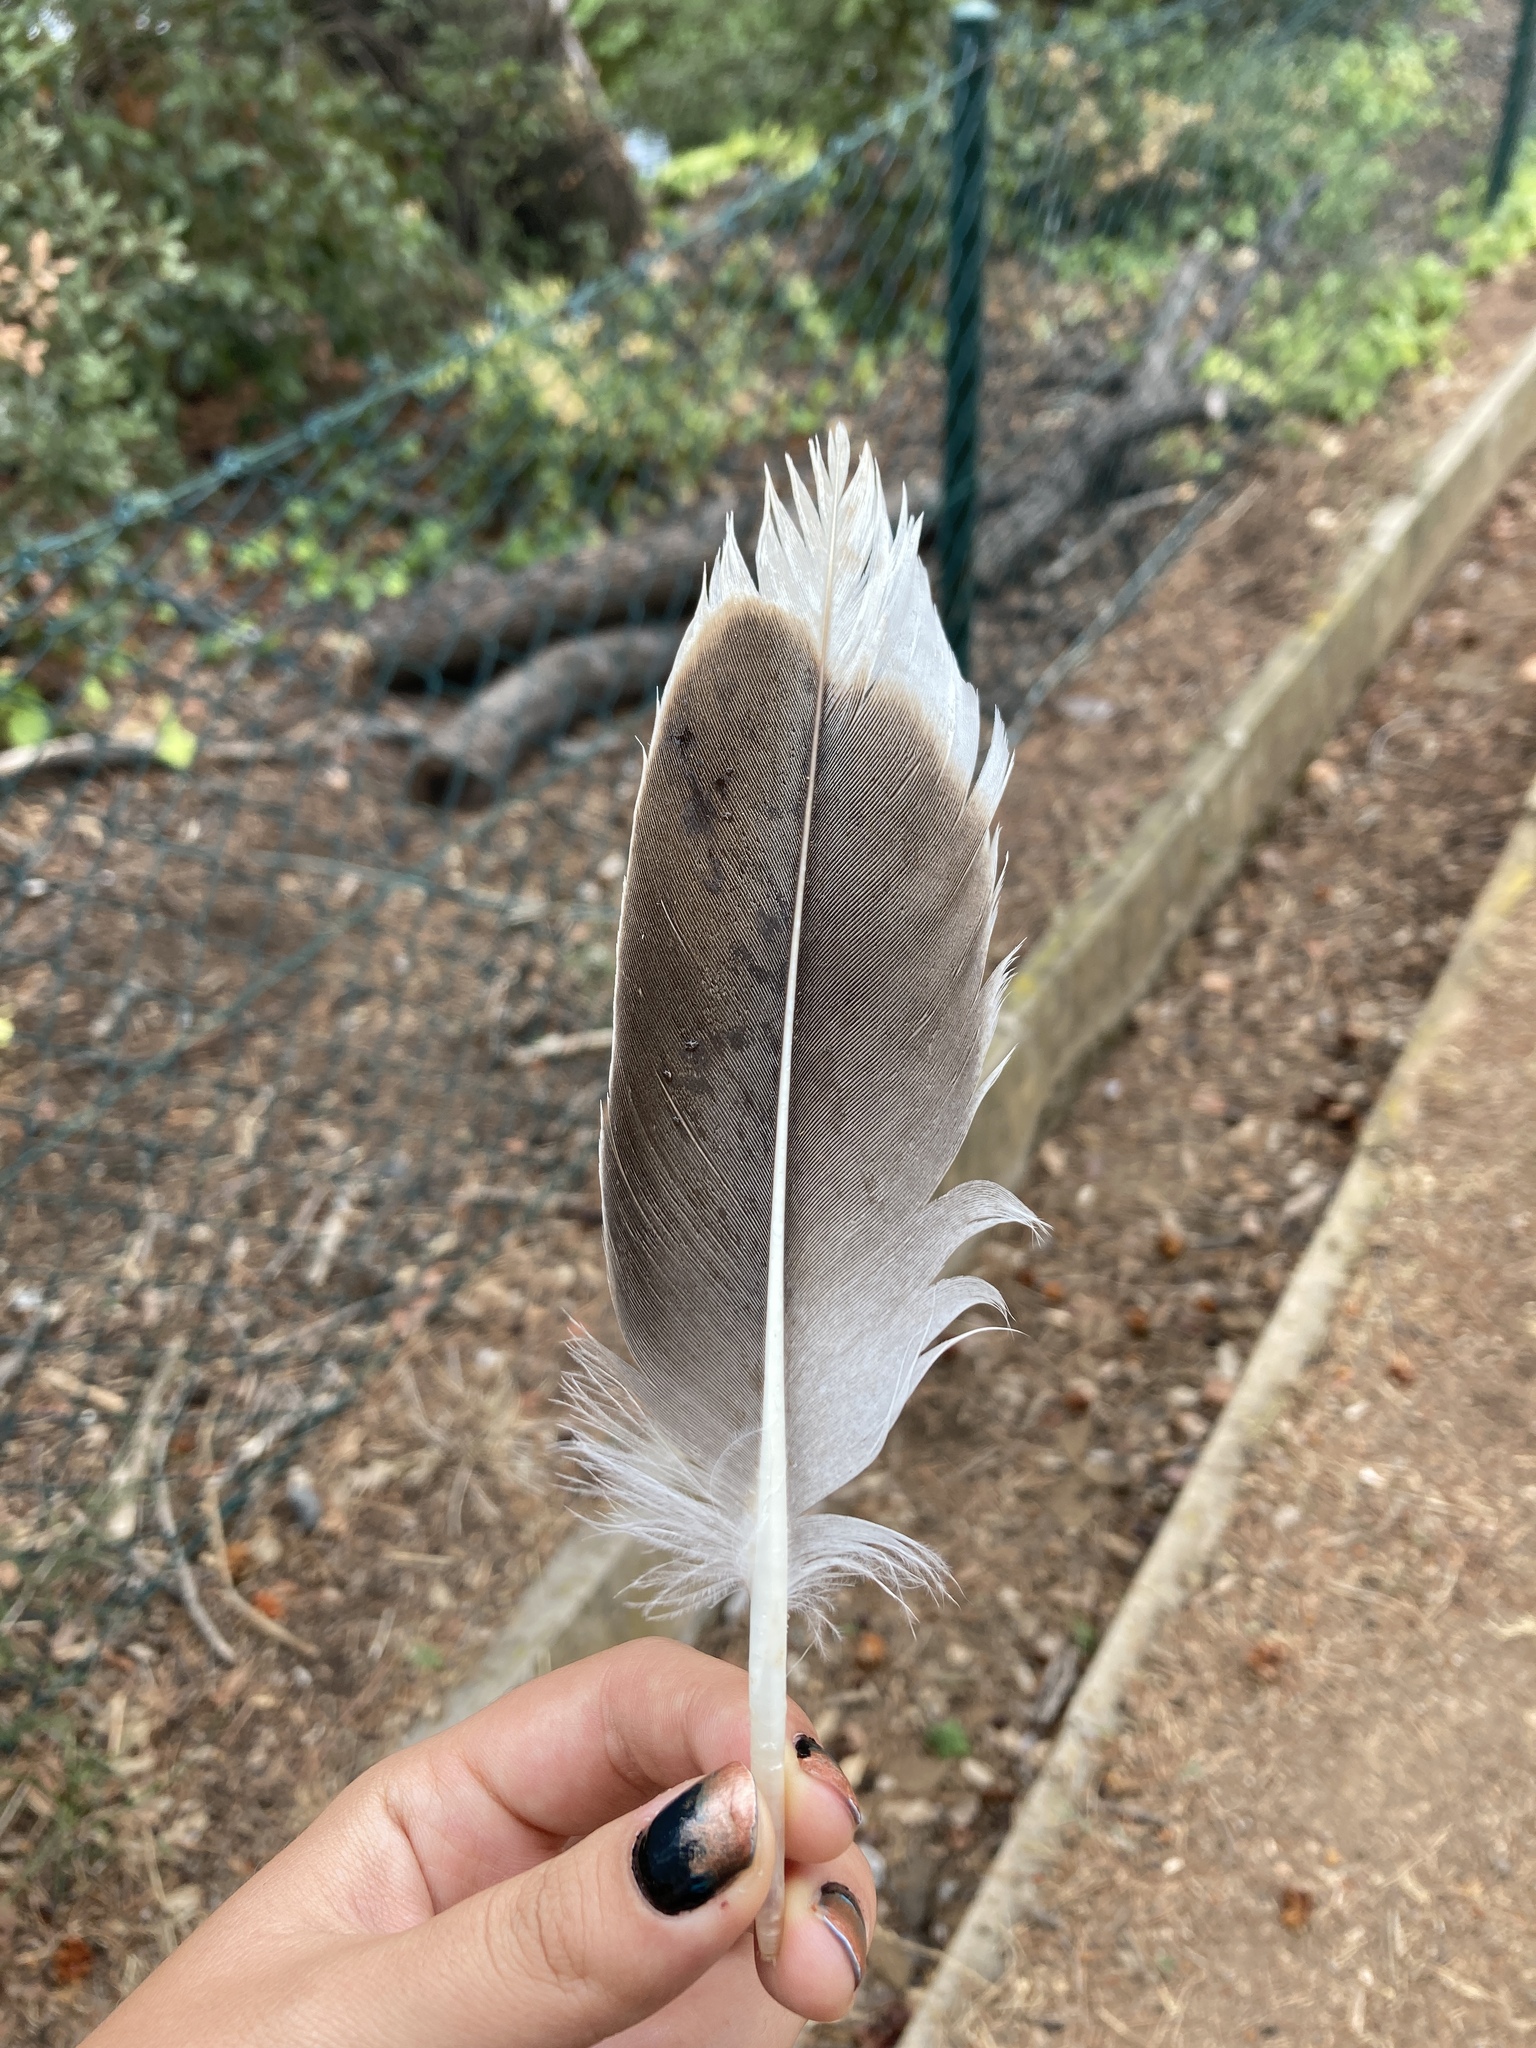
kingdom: Animalia
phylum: Chordata
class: Aves
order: Anseriformes
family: Anatidae
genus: Anser
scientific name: Anser anser
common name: Greylag goose
